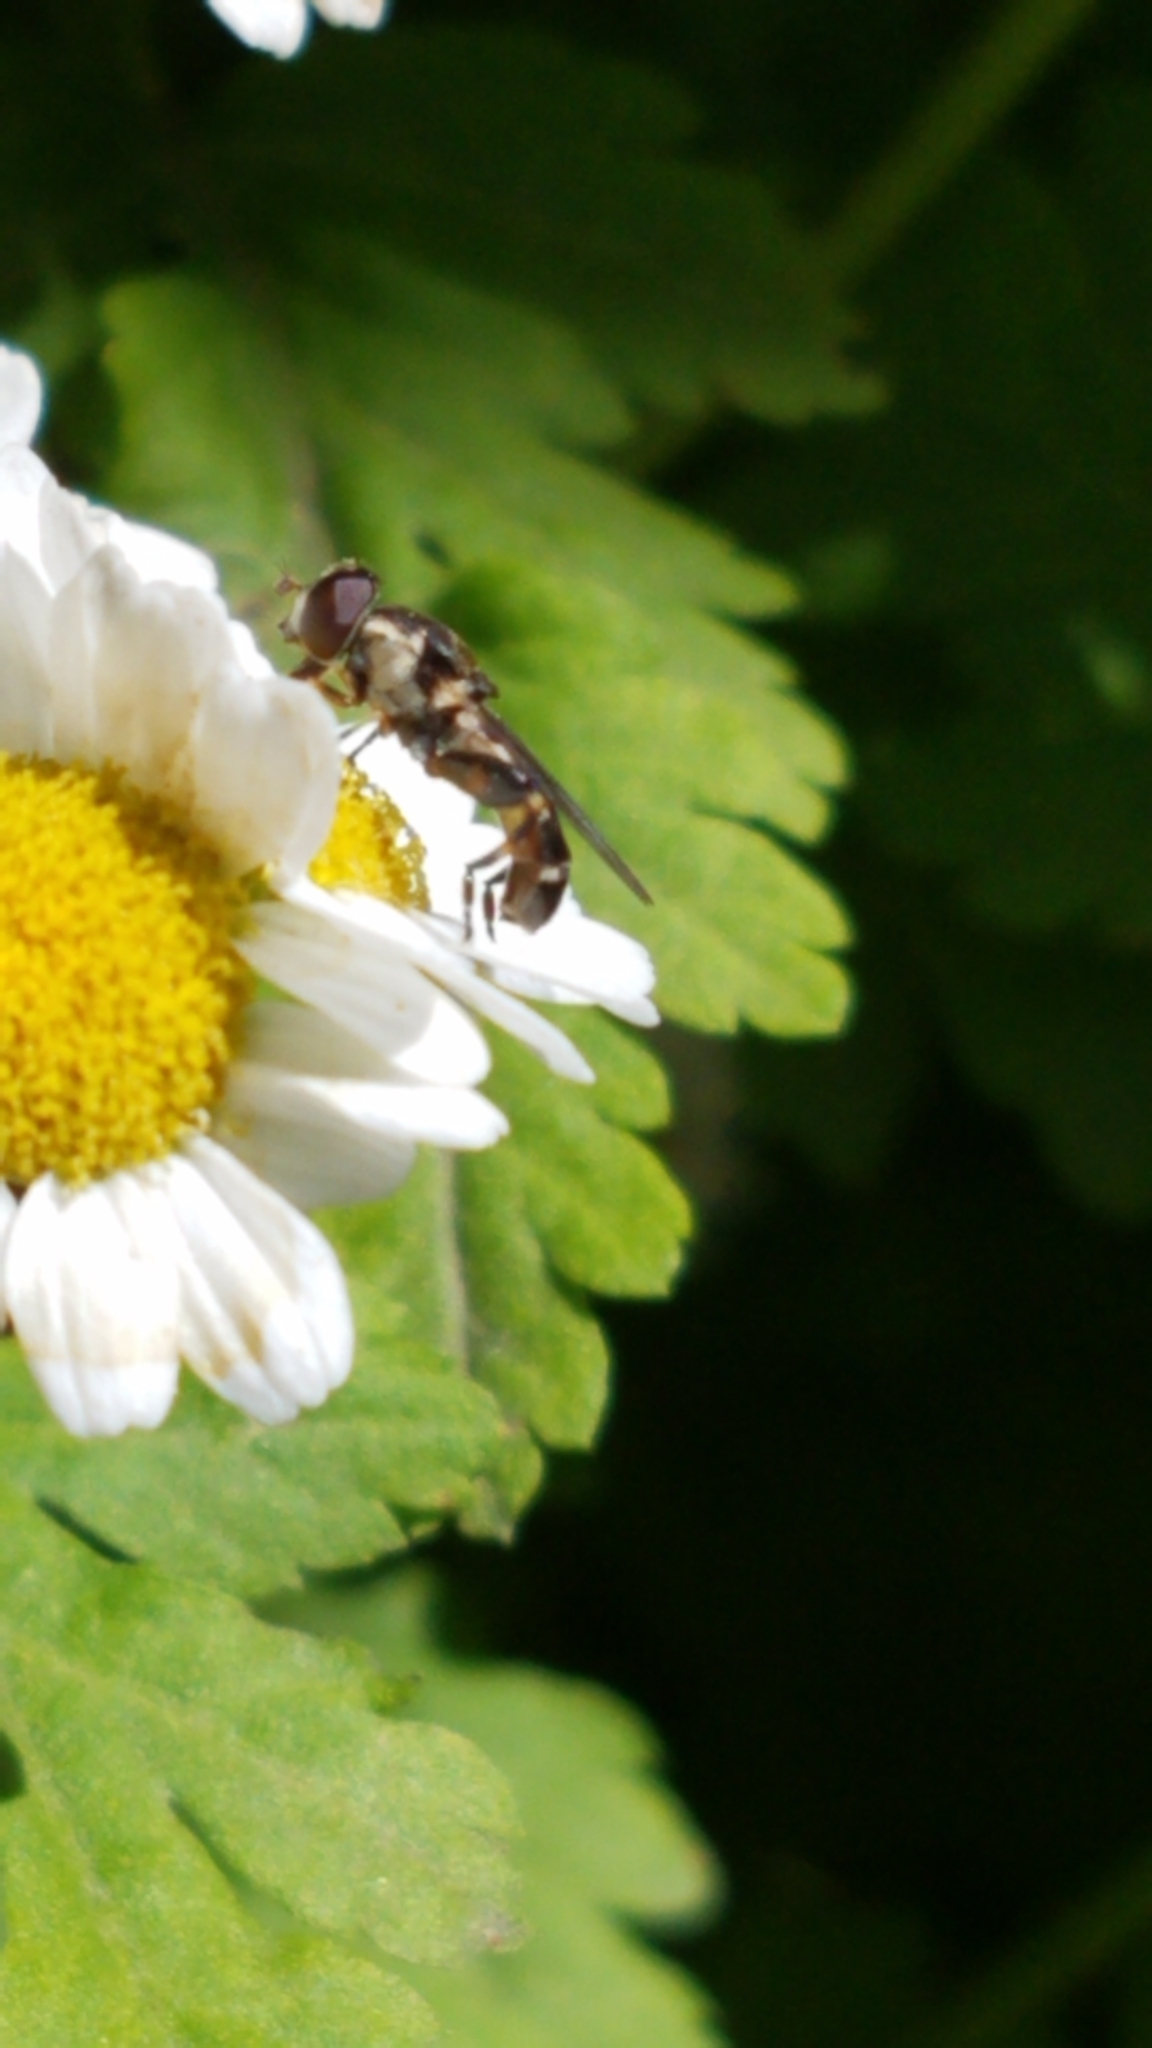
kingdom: Animalia
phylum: Arthropoda
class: Insecta
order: Diptera
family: Syrphidae
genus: Syritta
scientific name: Syritta pipiens
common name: Hover fly
